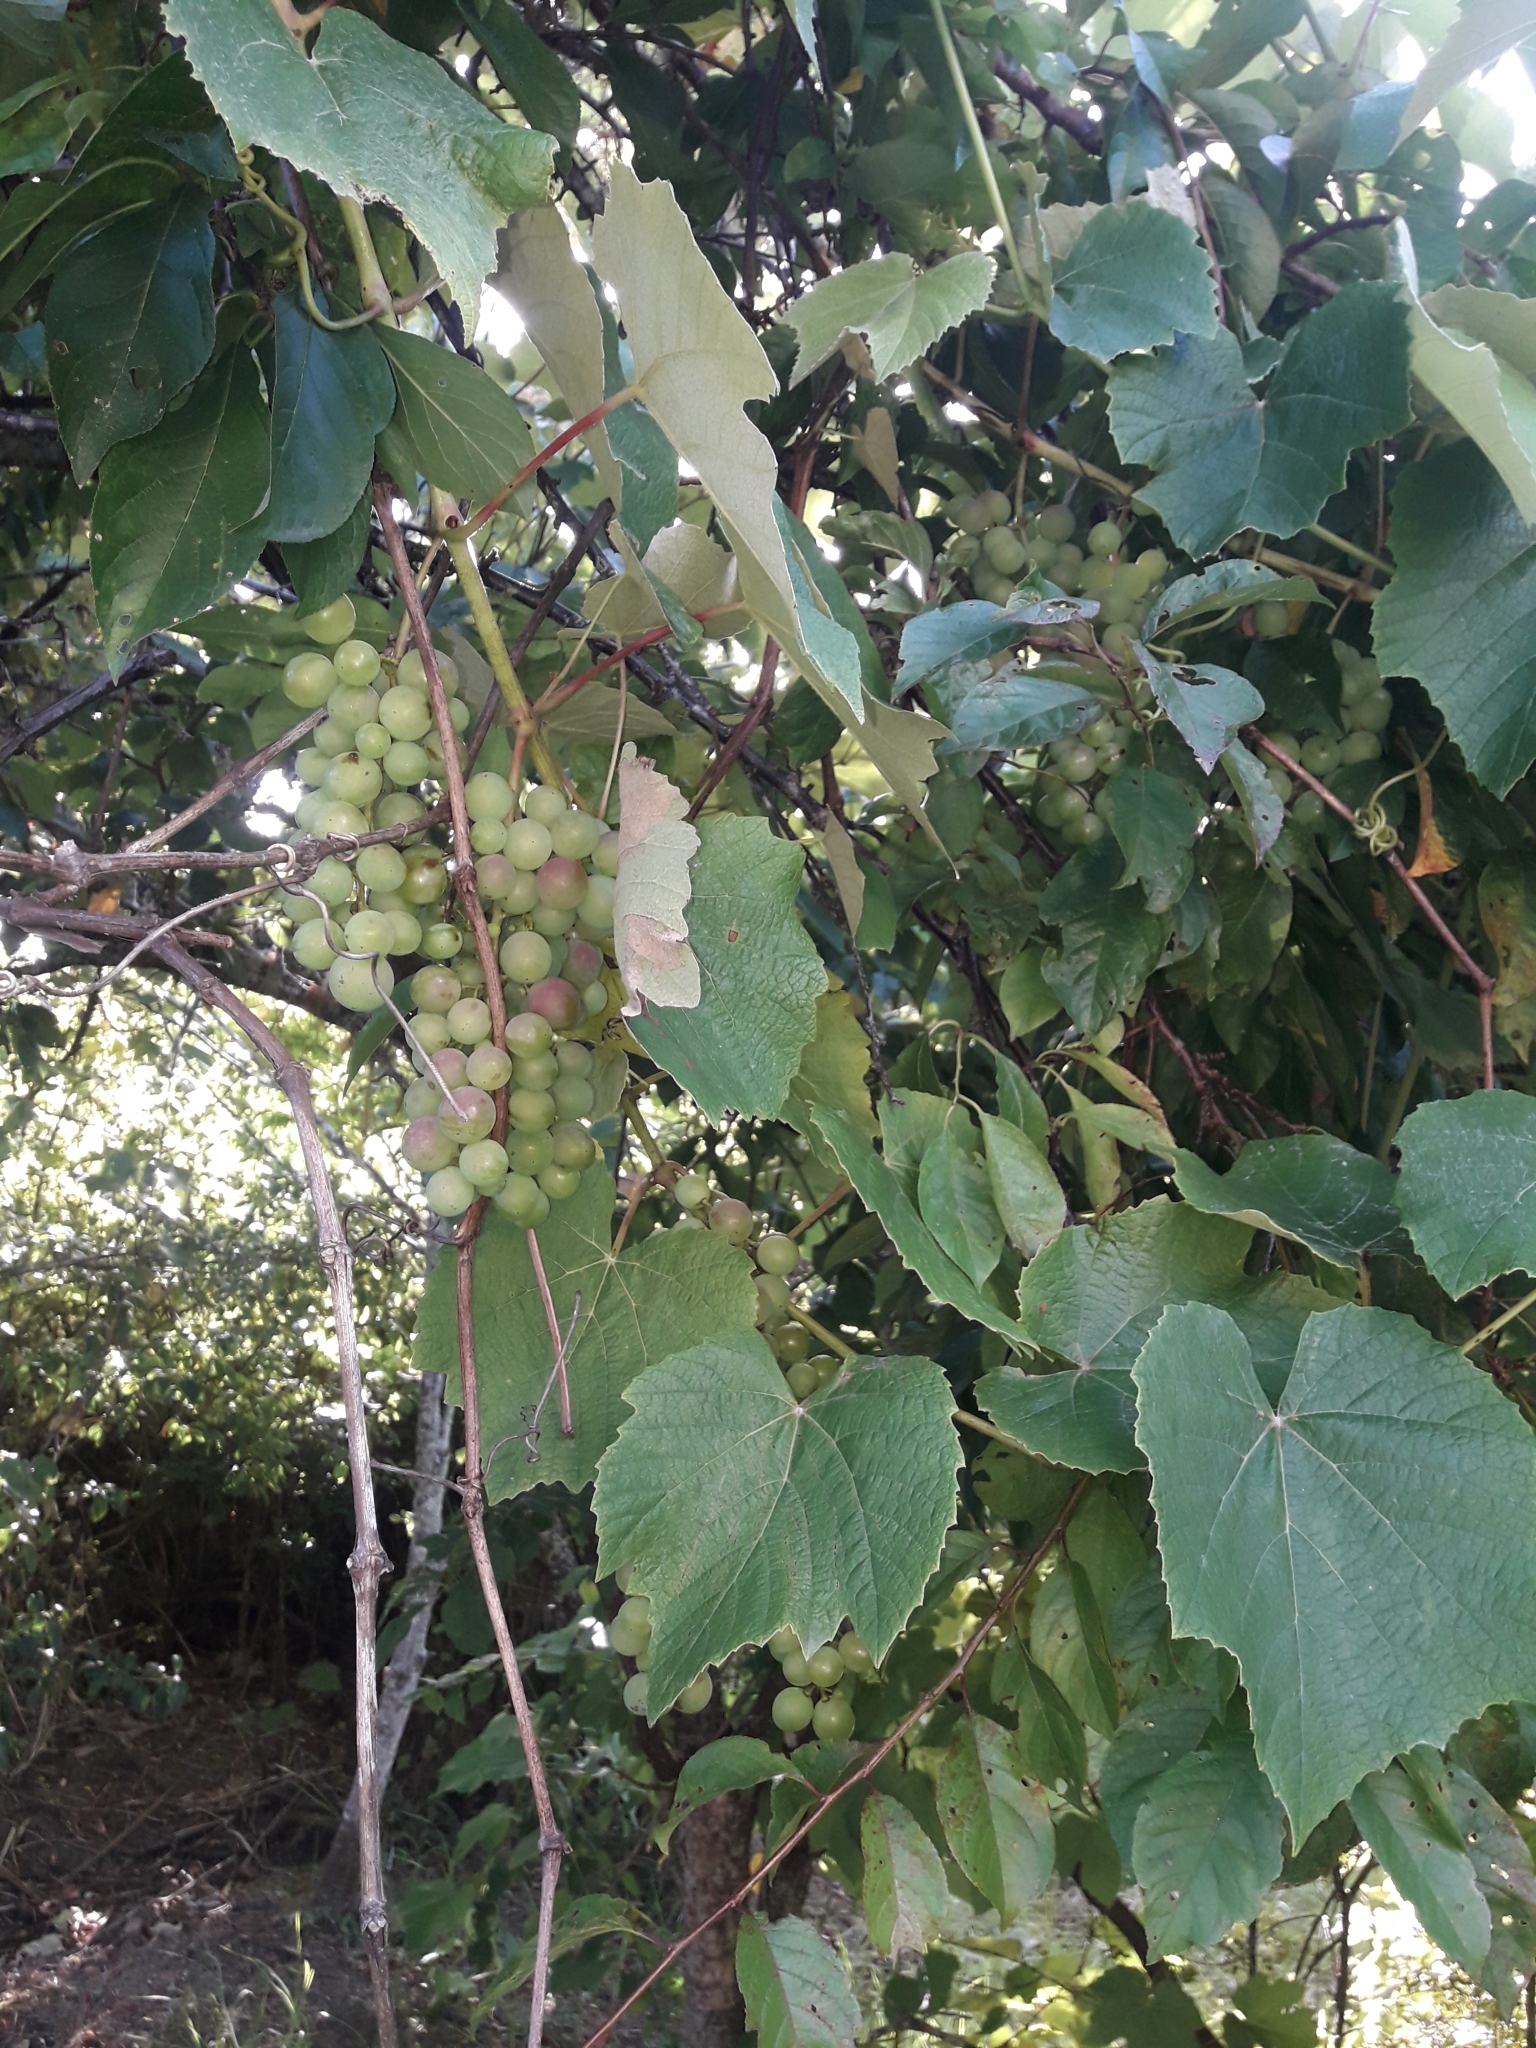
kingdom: Plantae
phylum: Tracheophyta
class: Magnoliopsida
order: Vitales
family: Vitaceae
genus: Vitis
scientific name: Vitis vinifera
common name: Grape-vine
